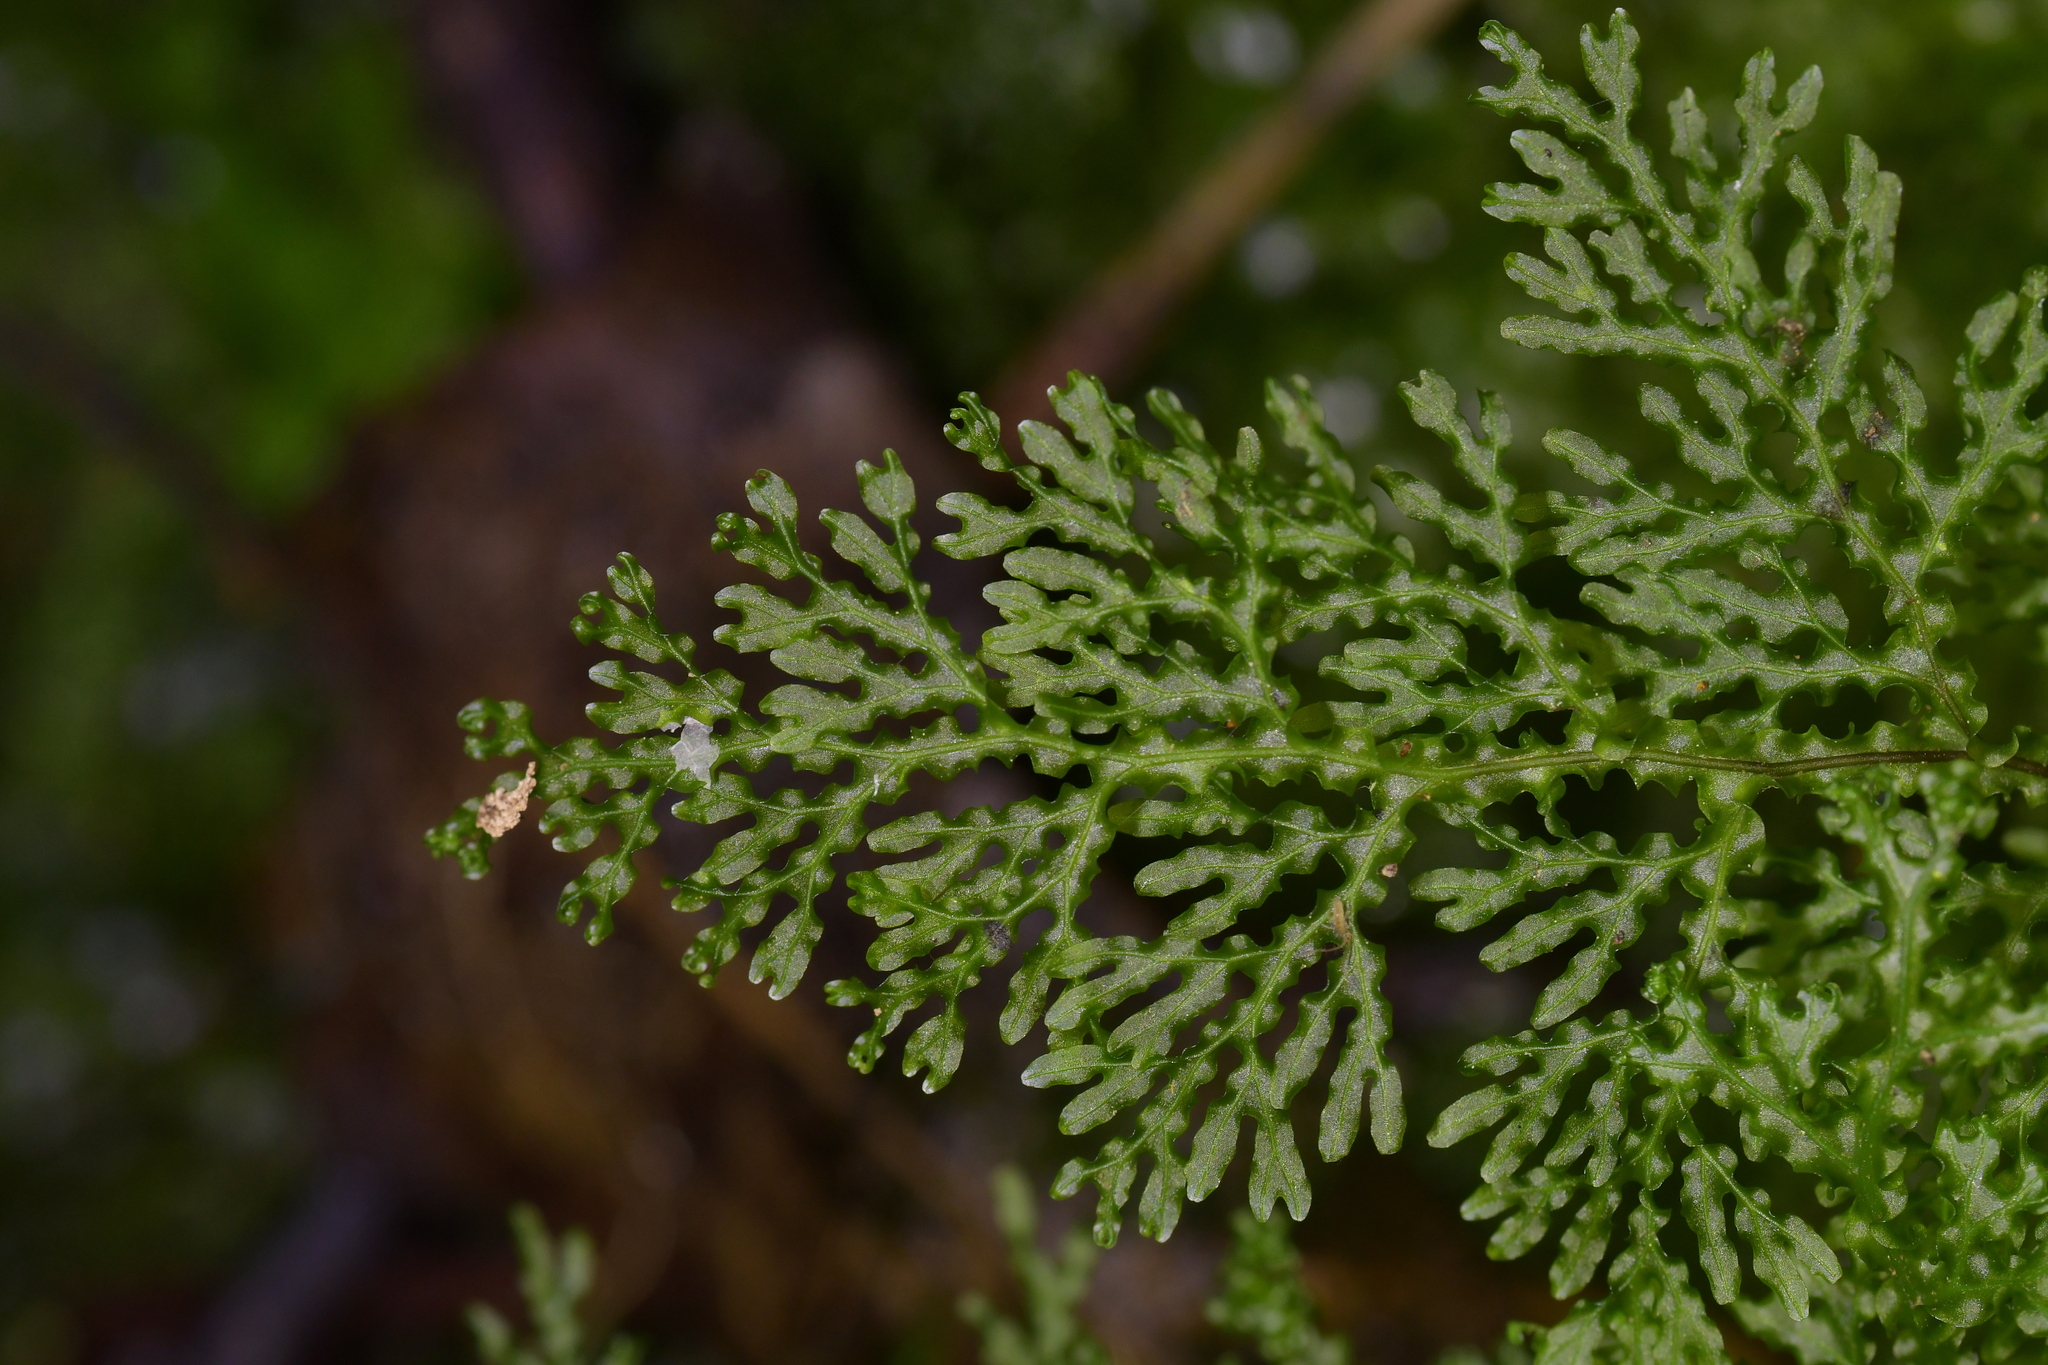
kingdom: Plantae
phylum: Tracheophyta
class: Polypodiopsida
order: Hymenophyllales
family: Hymenophyllaceae
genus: Hymenophyllum
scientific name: Hymenophyllum flexuosum
